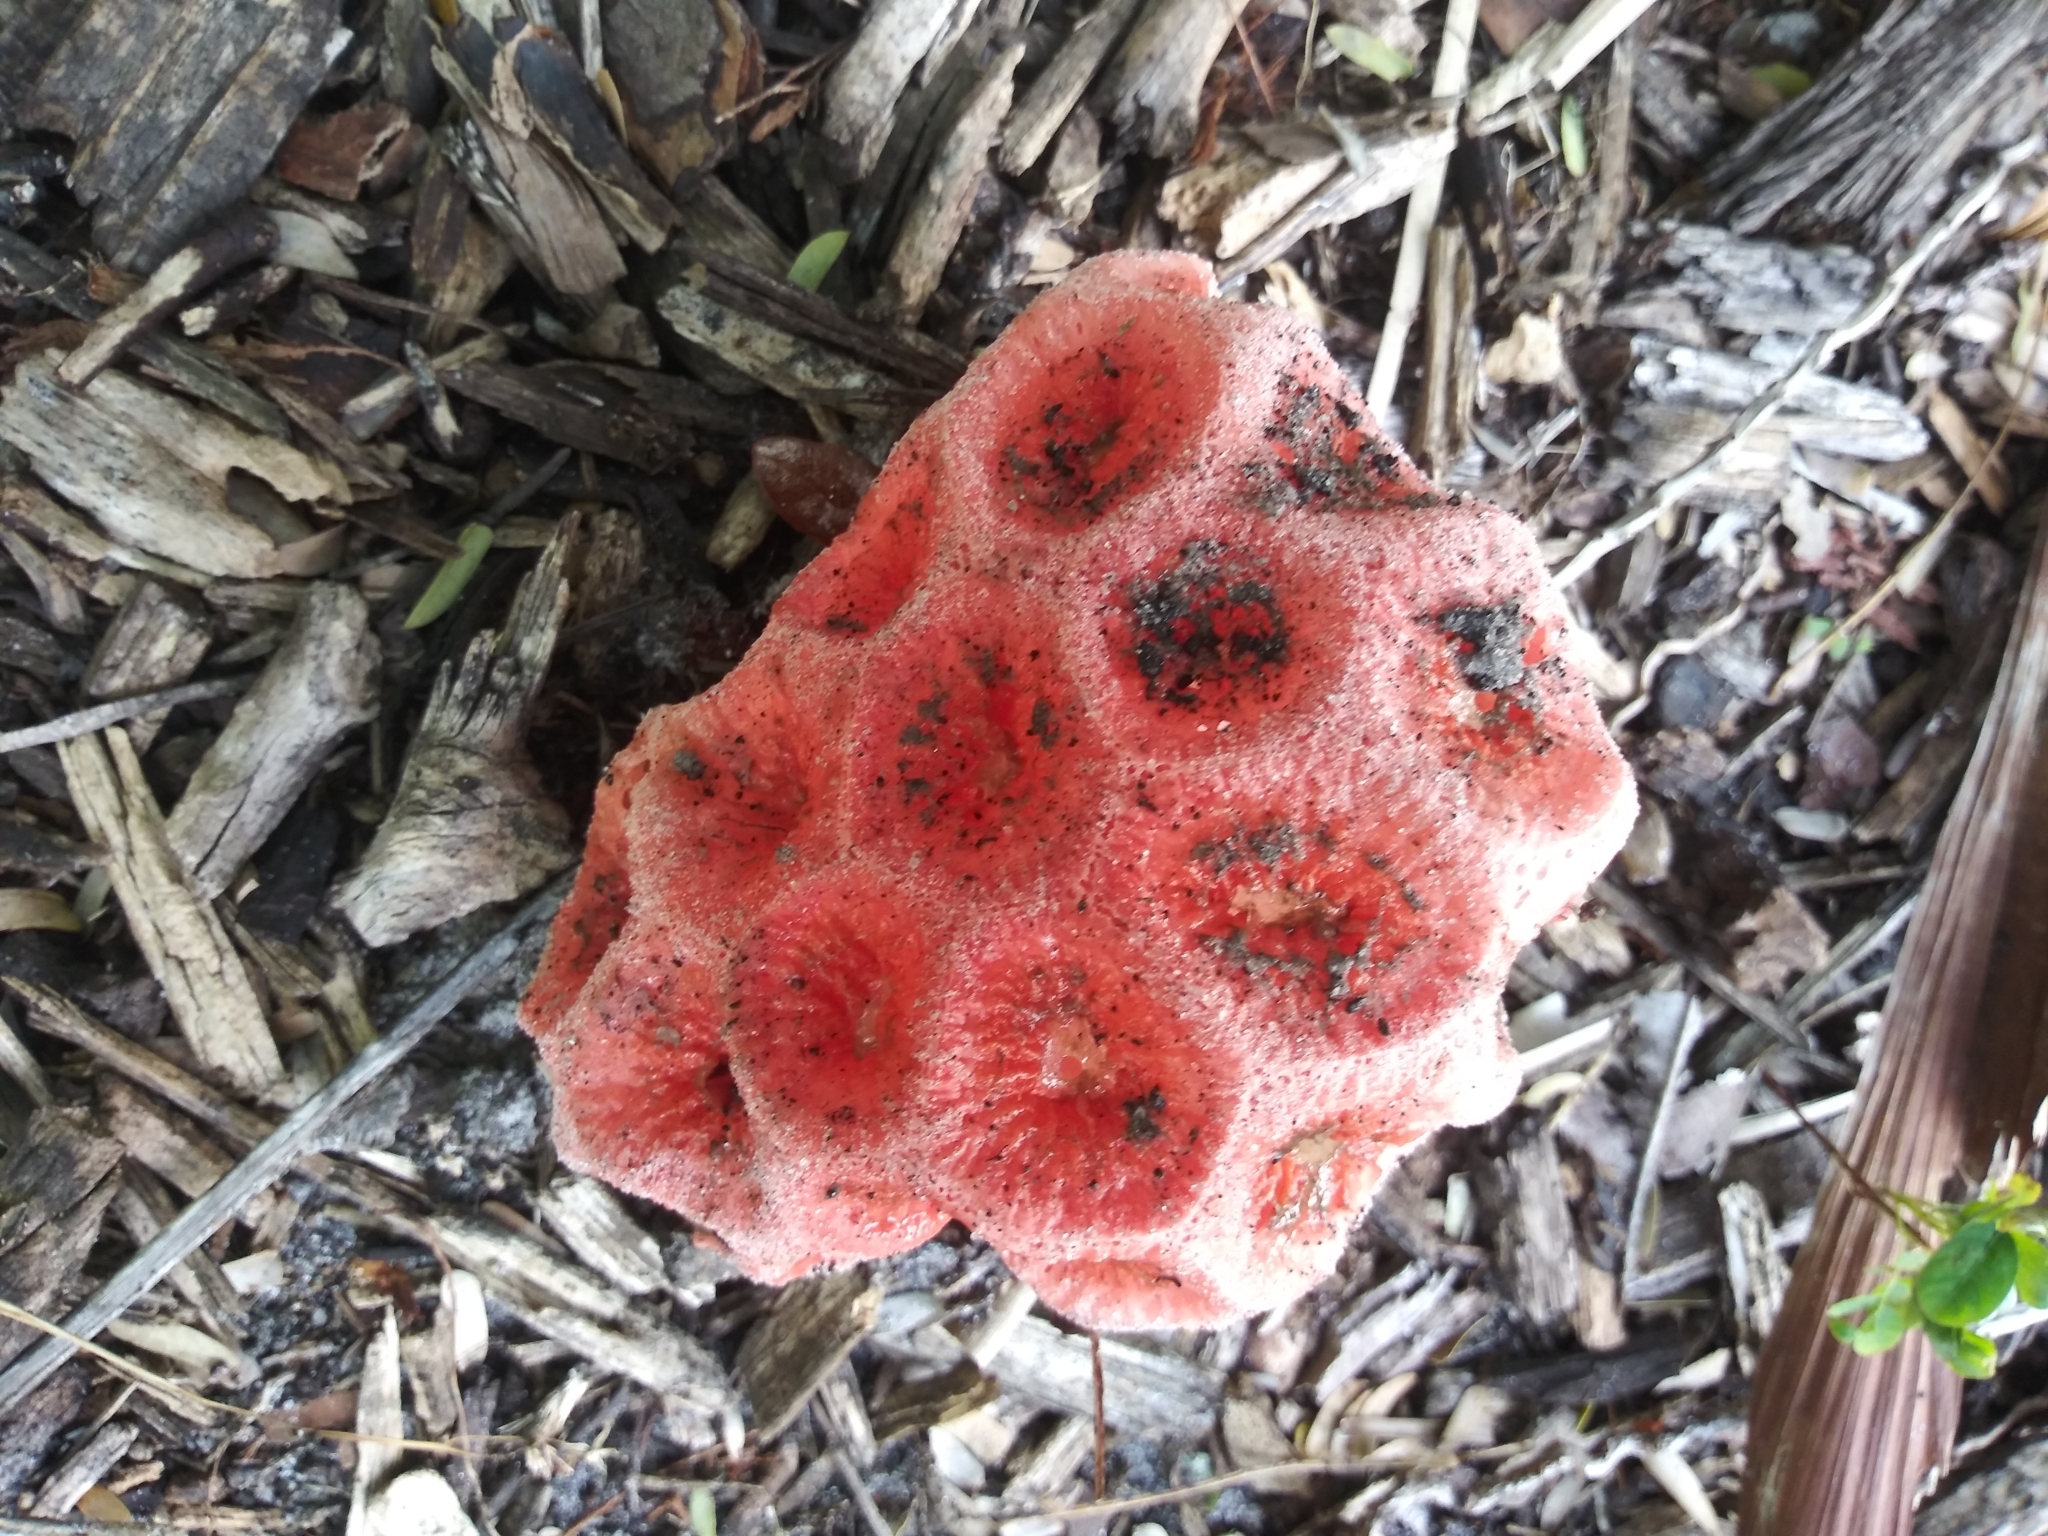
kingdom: Fungi
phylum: Basidiomycota
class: Agaricomycetes
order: Phallales
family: Phallaceae
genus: Clathrus
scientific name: Clathrus crispatus
